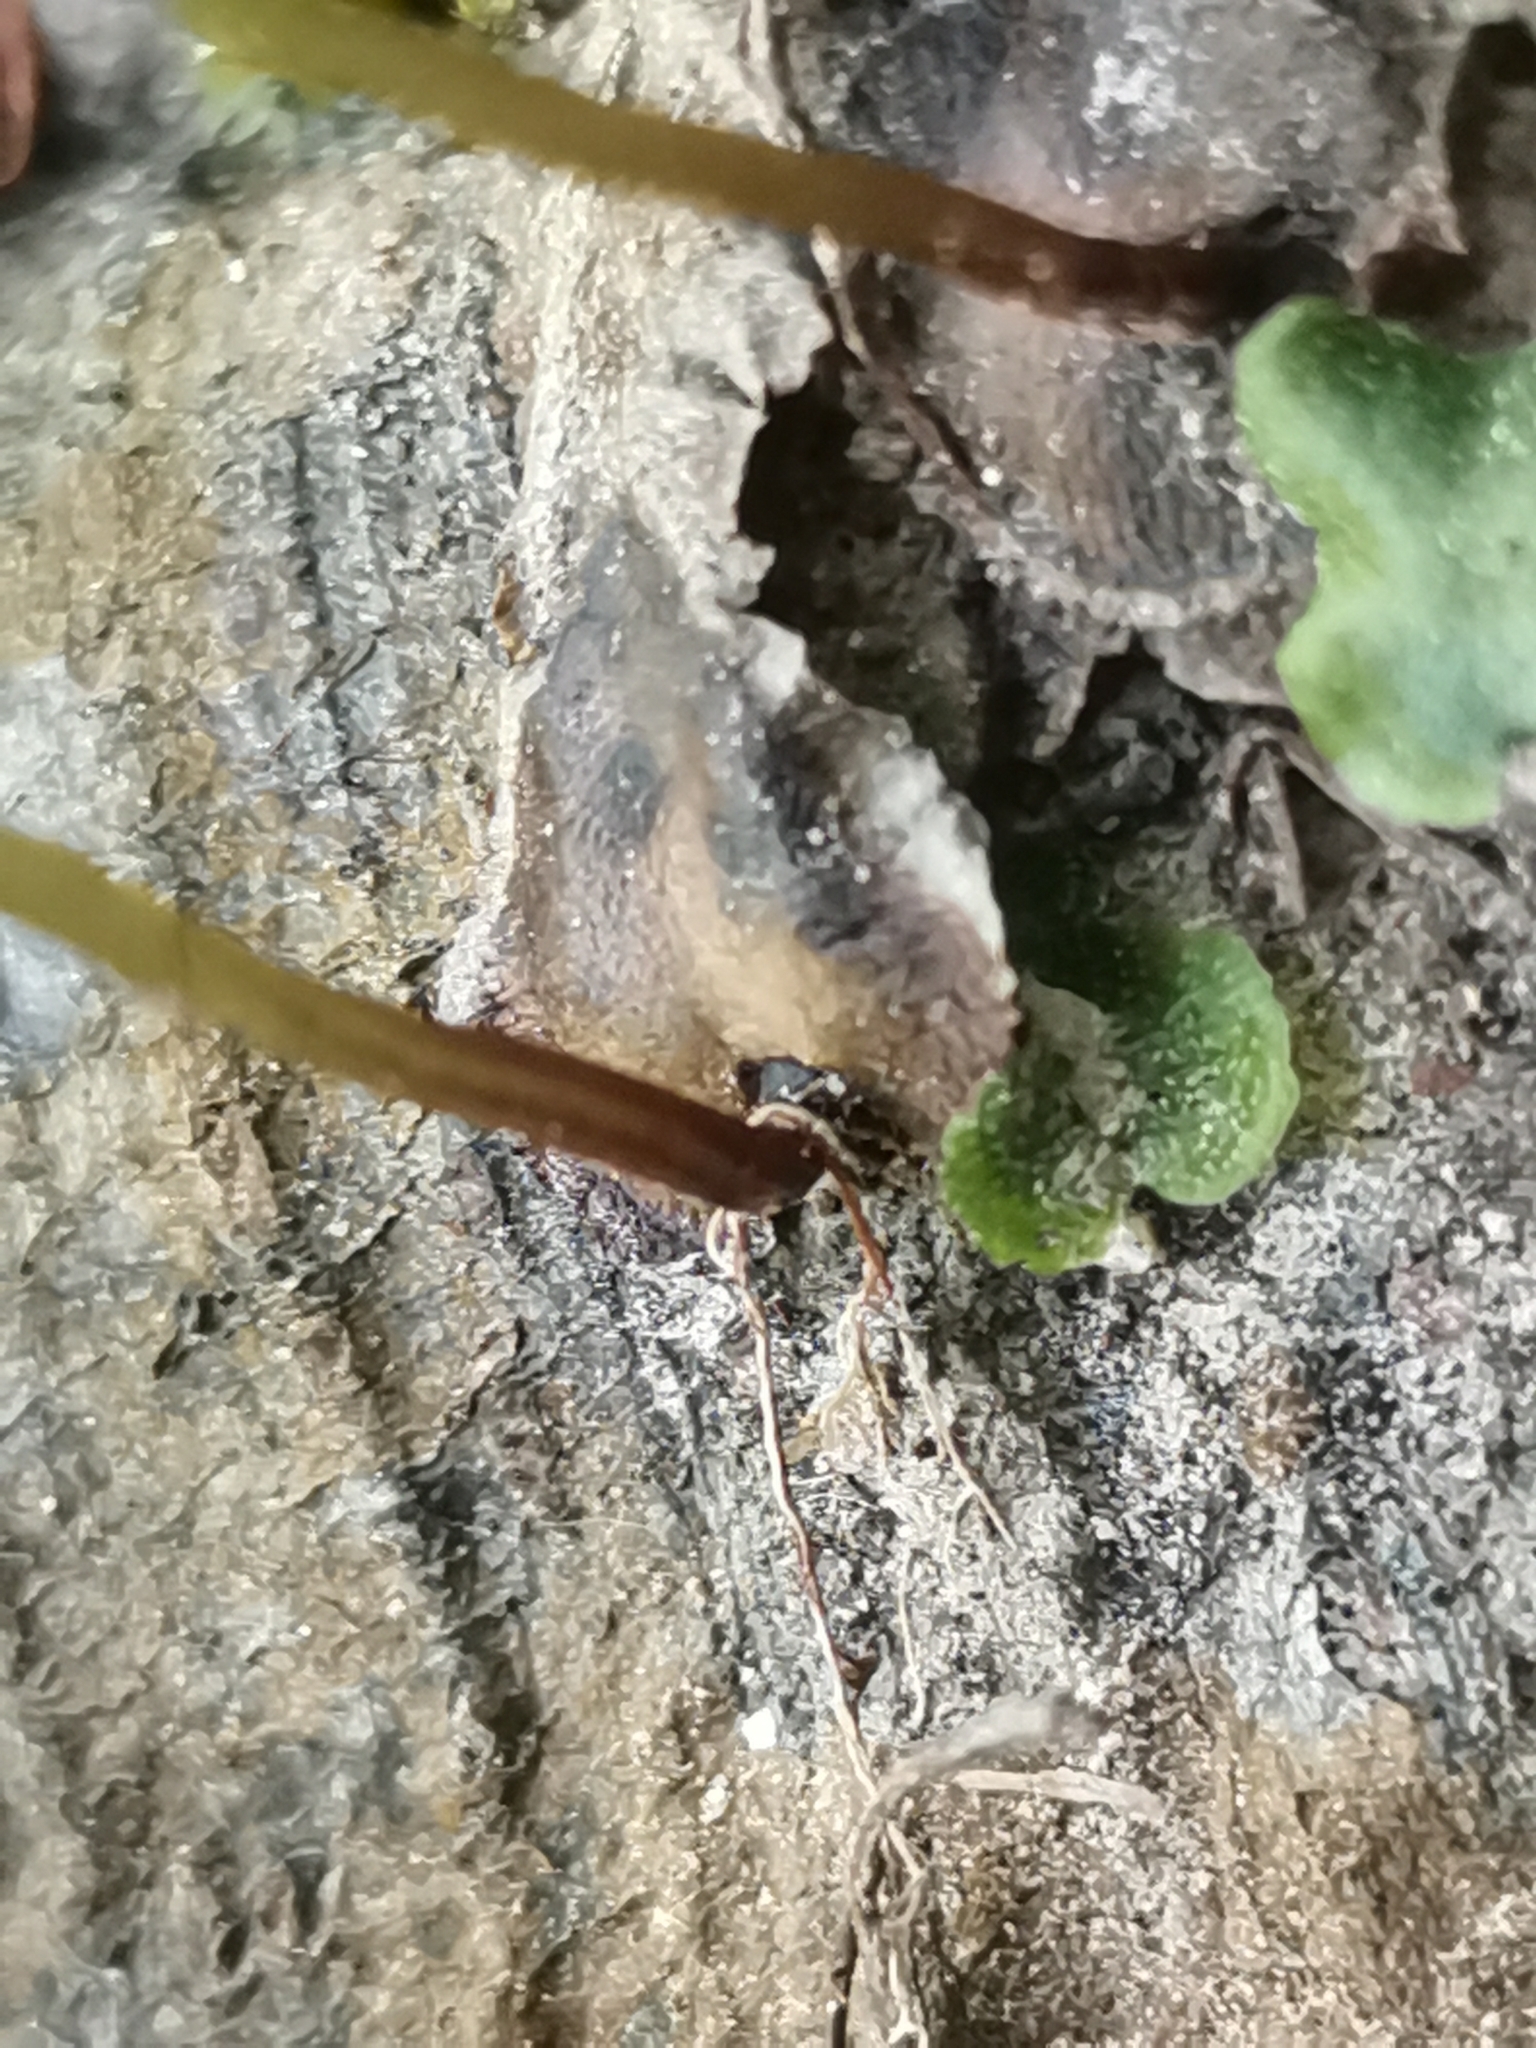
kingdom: Plantae
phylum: Marchantiophyta
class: Marchantiopsida
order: Marchantiales
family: Marchantiaceae
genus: Marchantia
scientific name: Marchantia quadrata
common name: Narrow mushroom-headed liverwort
